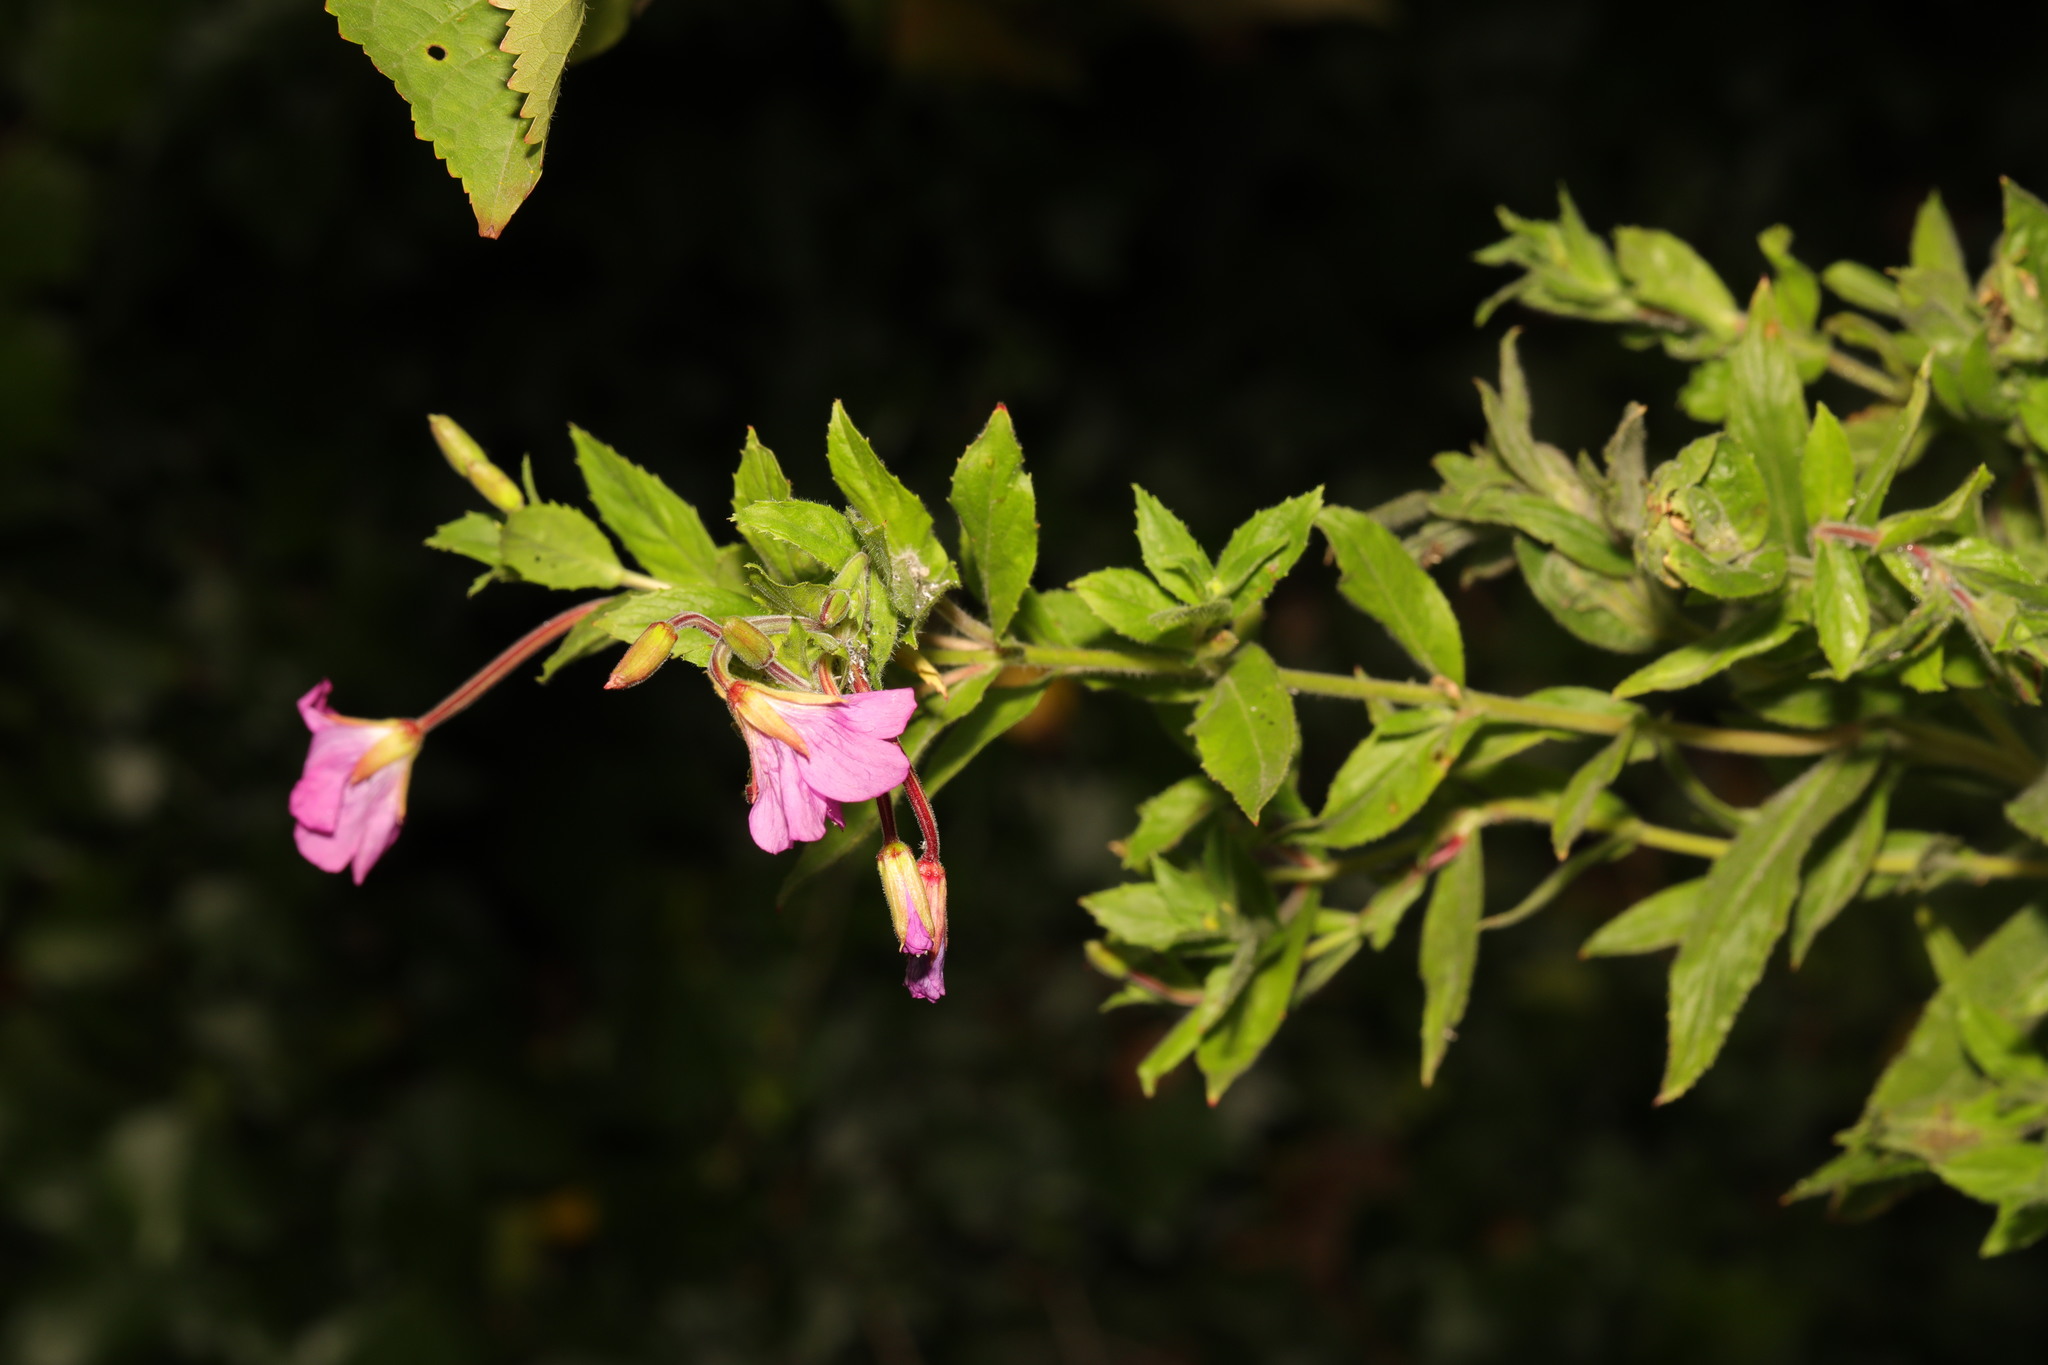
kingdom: Plantae
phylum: Tracheophyta
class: Magnoliopsida
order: Myrtales
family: Onagraceae
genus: Epilobium
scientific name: Epilobium hirsutum
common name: Great willowherb
